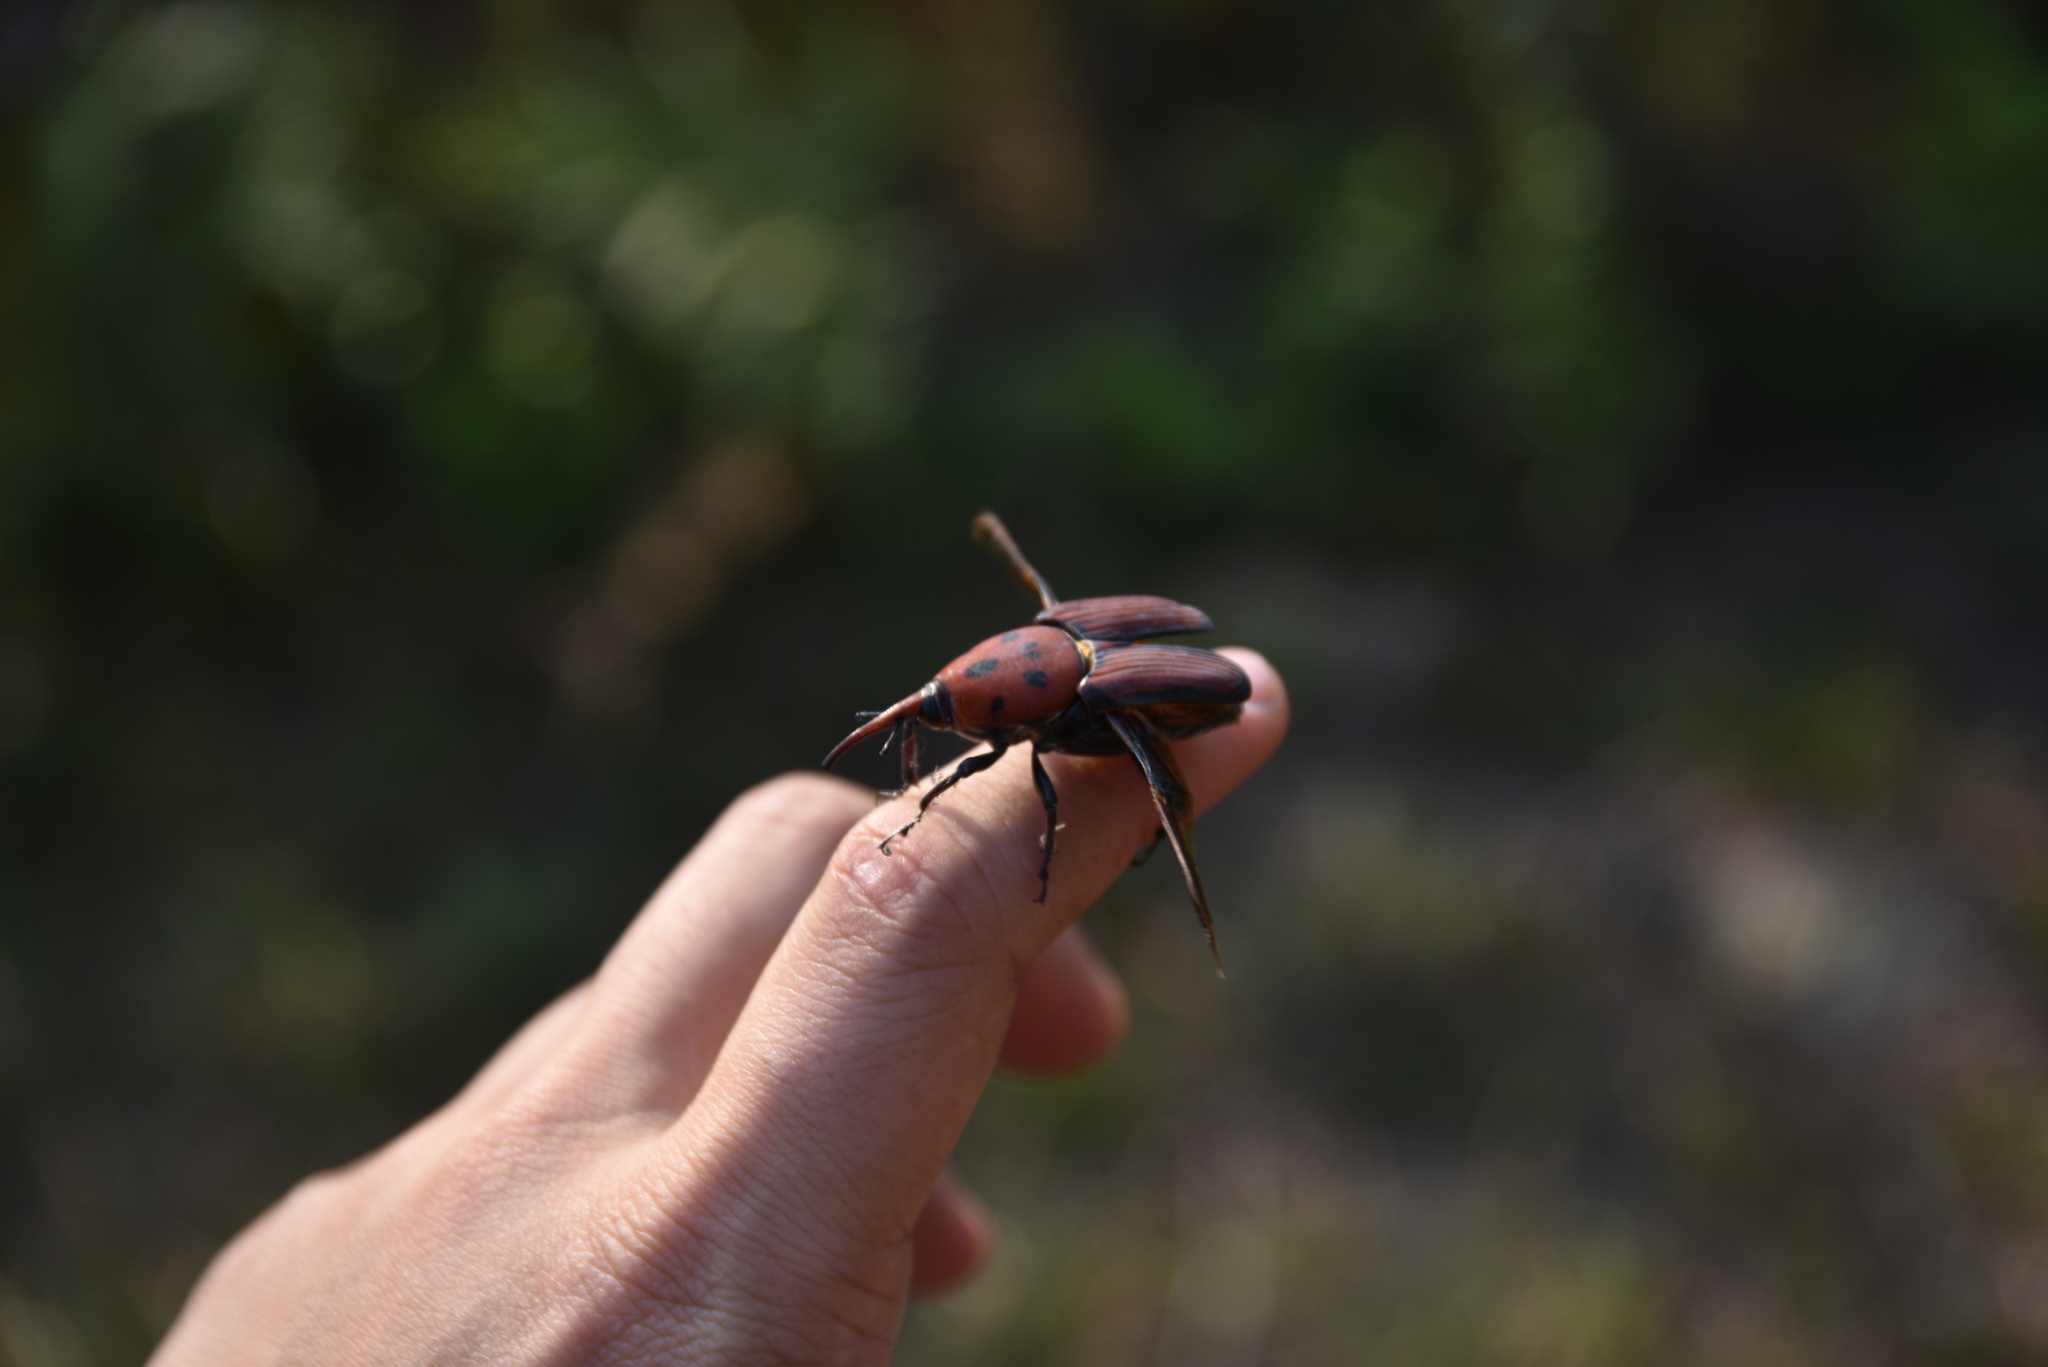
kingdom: Animalia
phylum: Arthropoda
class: Insecta
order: Coleoptera
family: Dryophthoridae
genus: Rhynchophorus
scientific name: Rhynchophorus ferrugineus
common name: Red palm weevil
